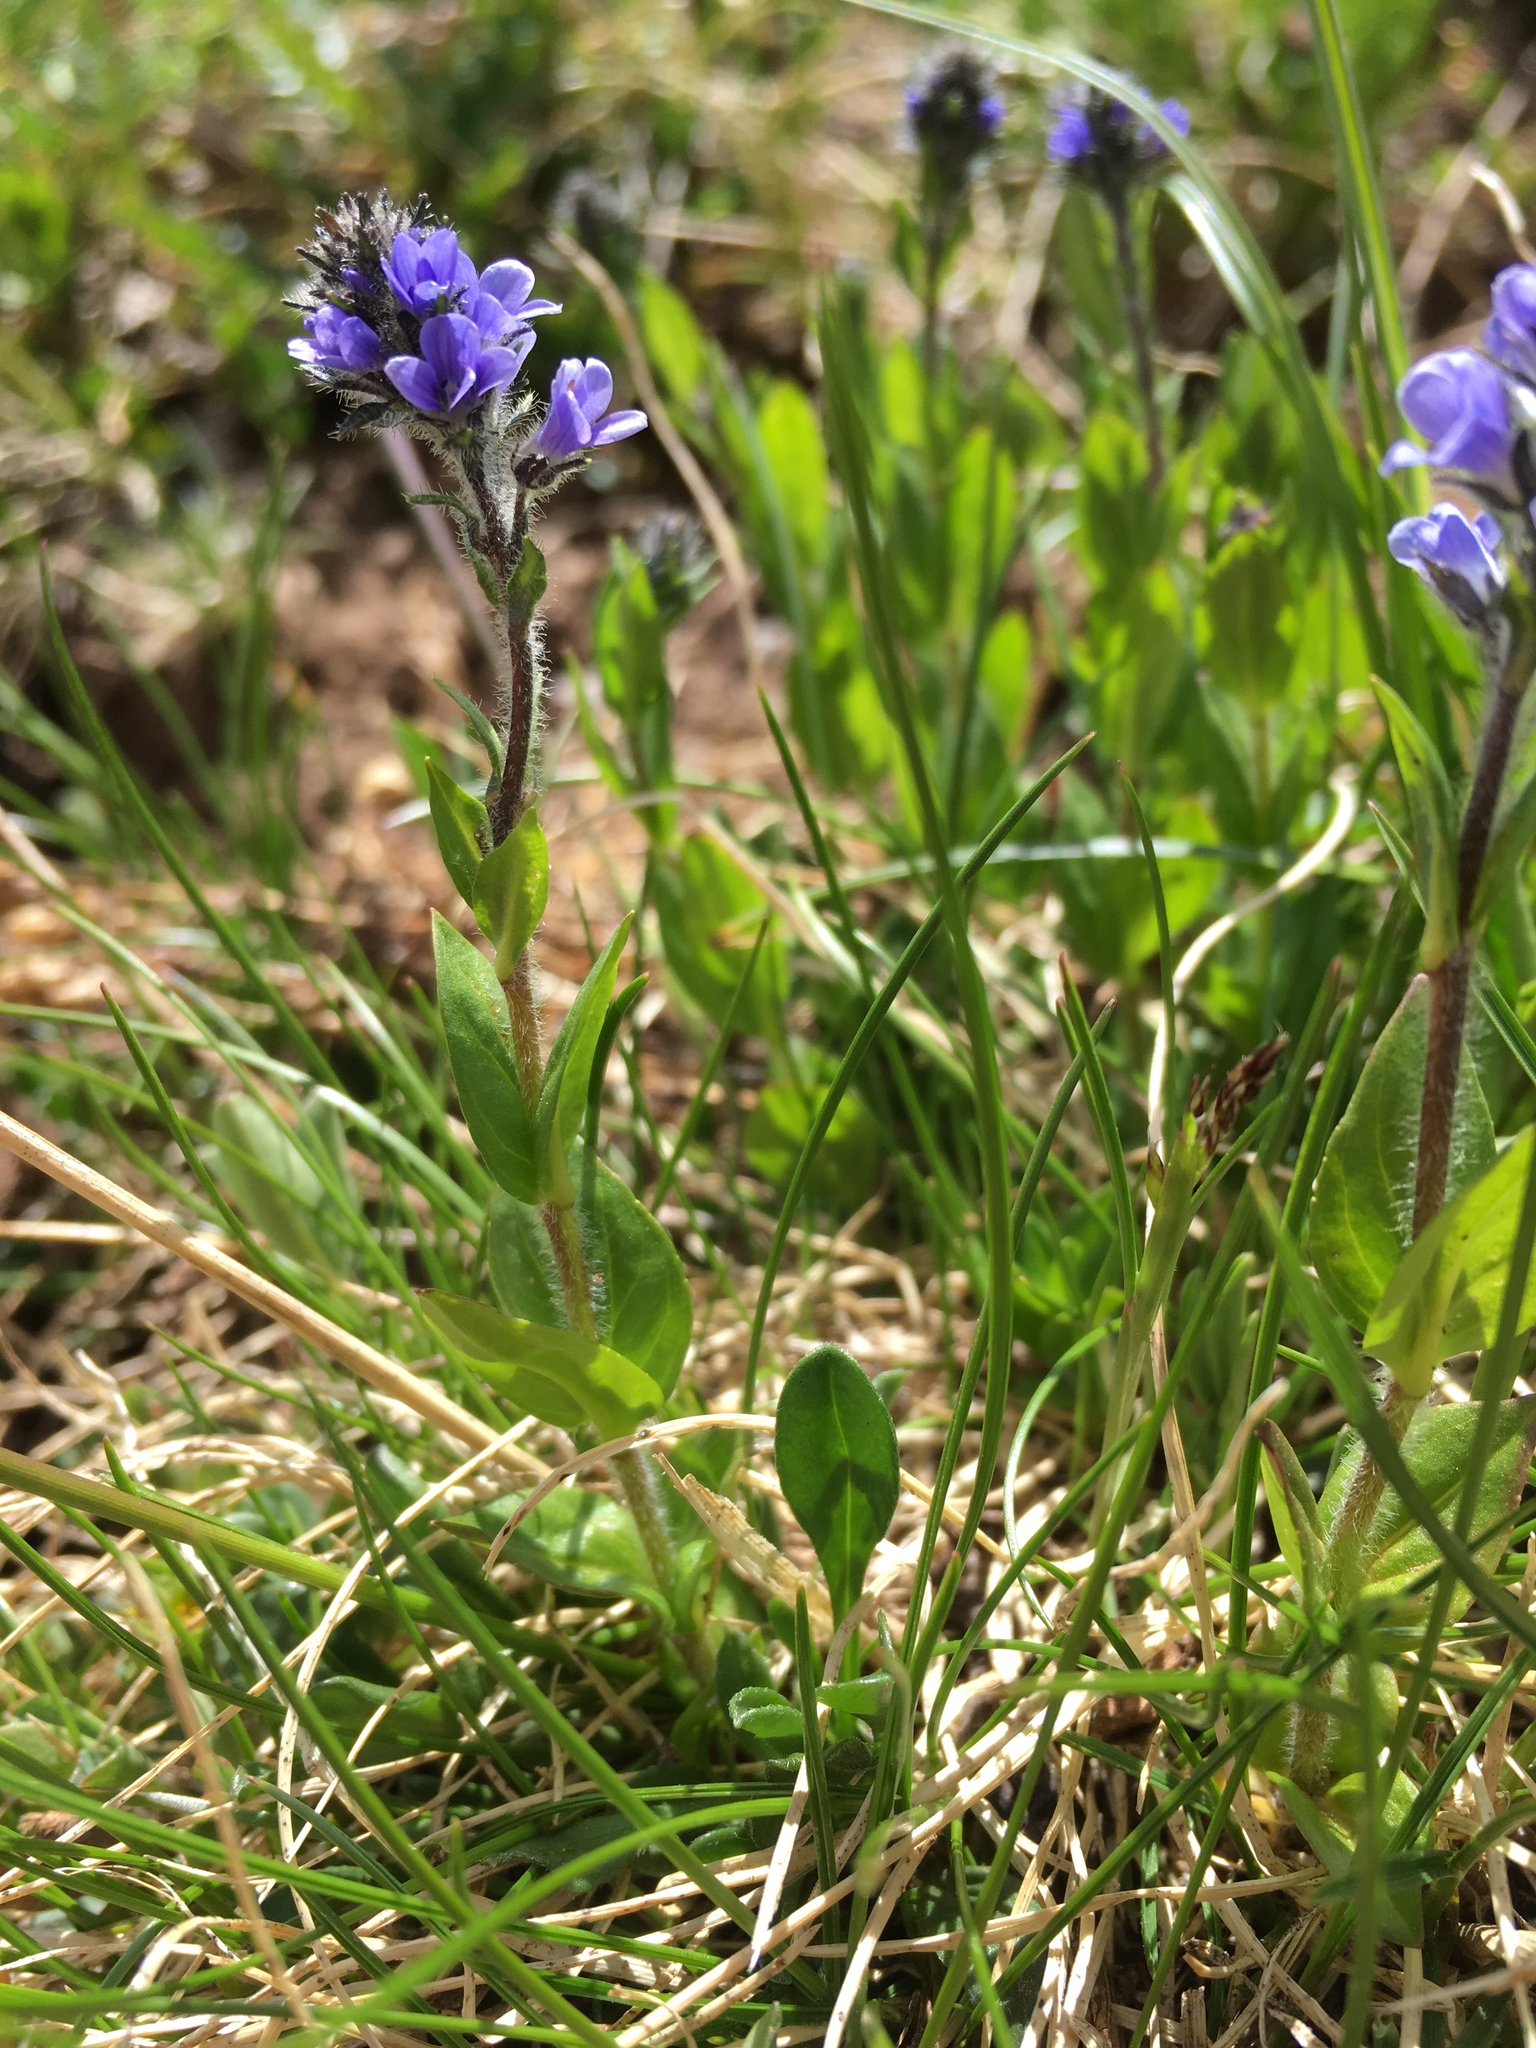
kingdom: Plantae
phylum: Tracheophyta
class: Magnoliopsida
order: Lamiales
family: Plantaginaceae
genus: Veronica
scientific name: Veronica wormskjoldii
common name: American alpine speedwell
